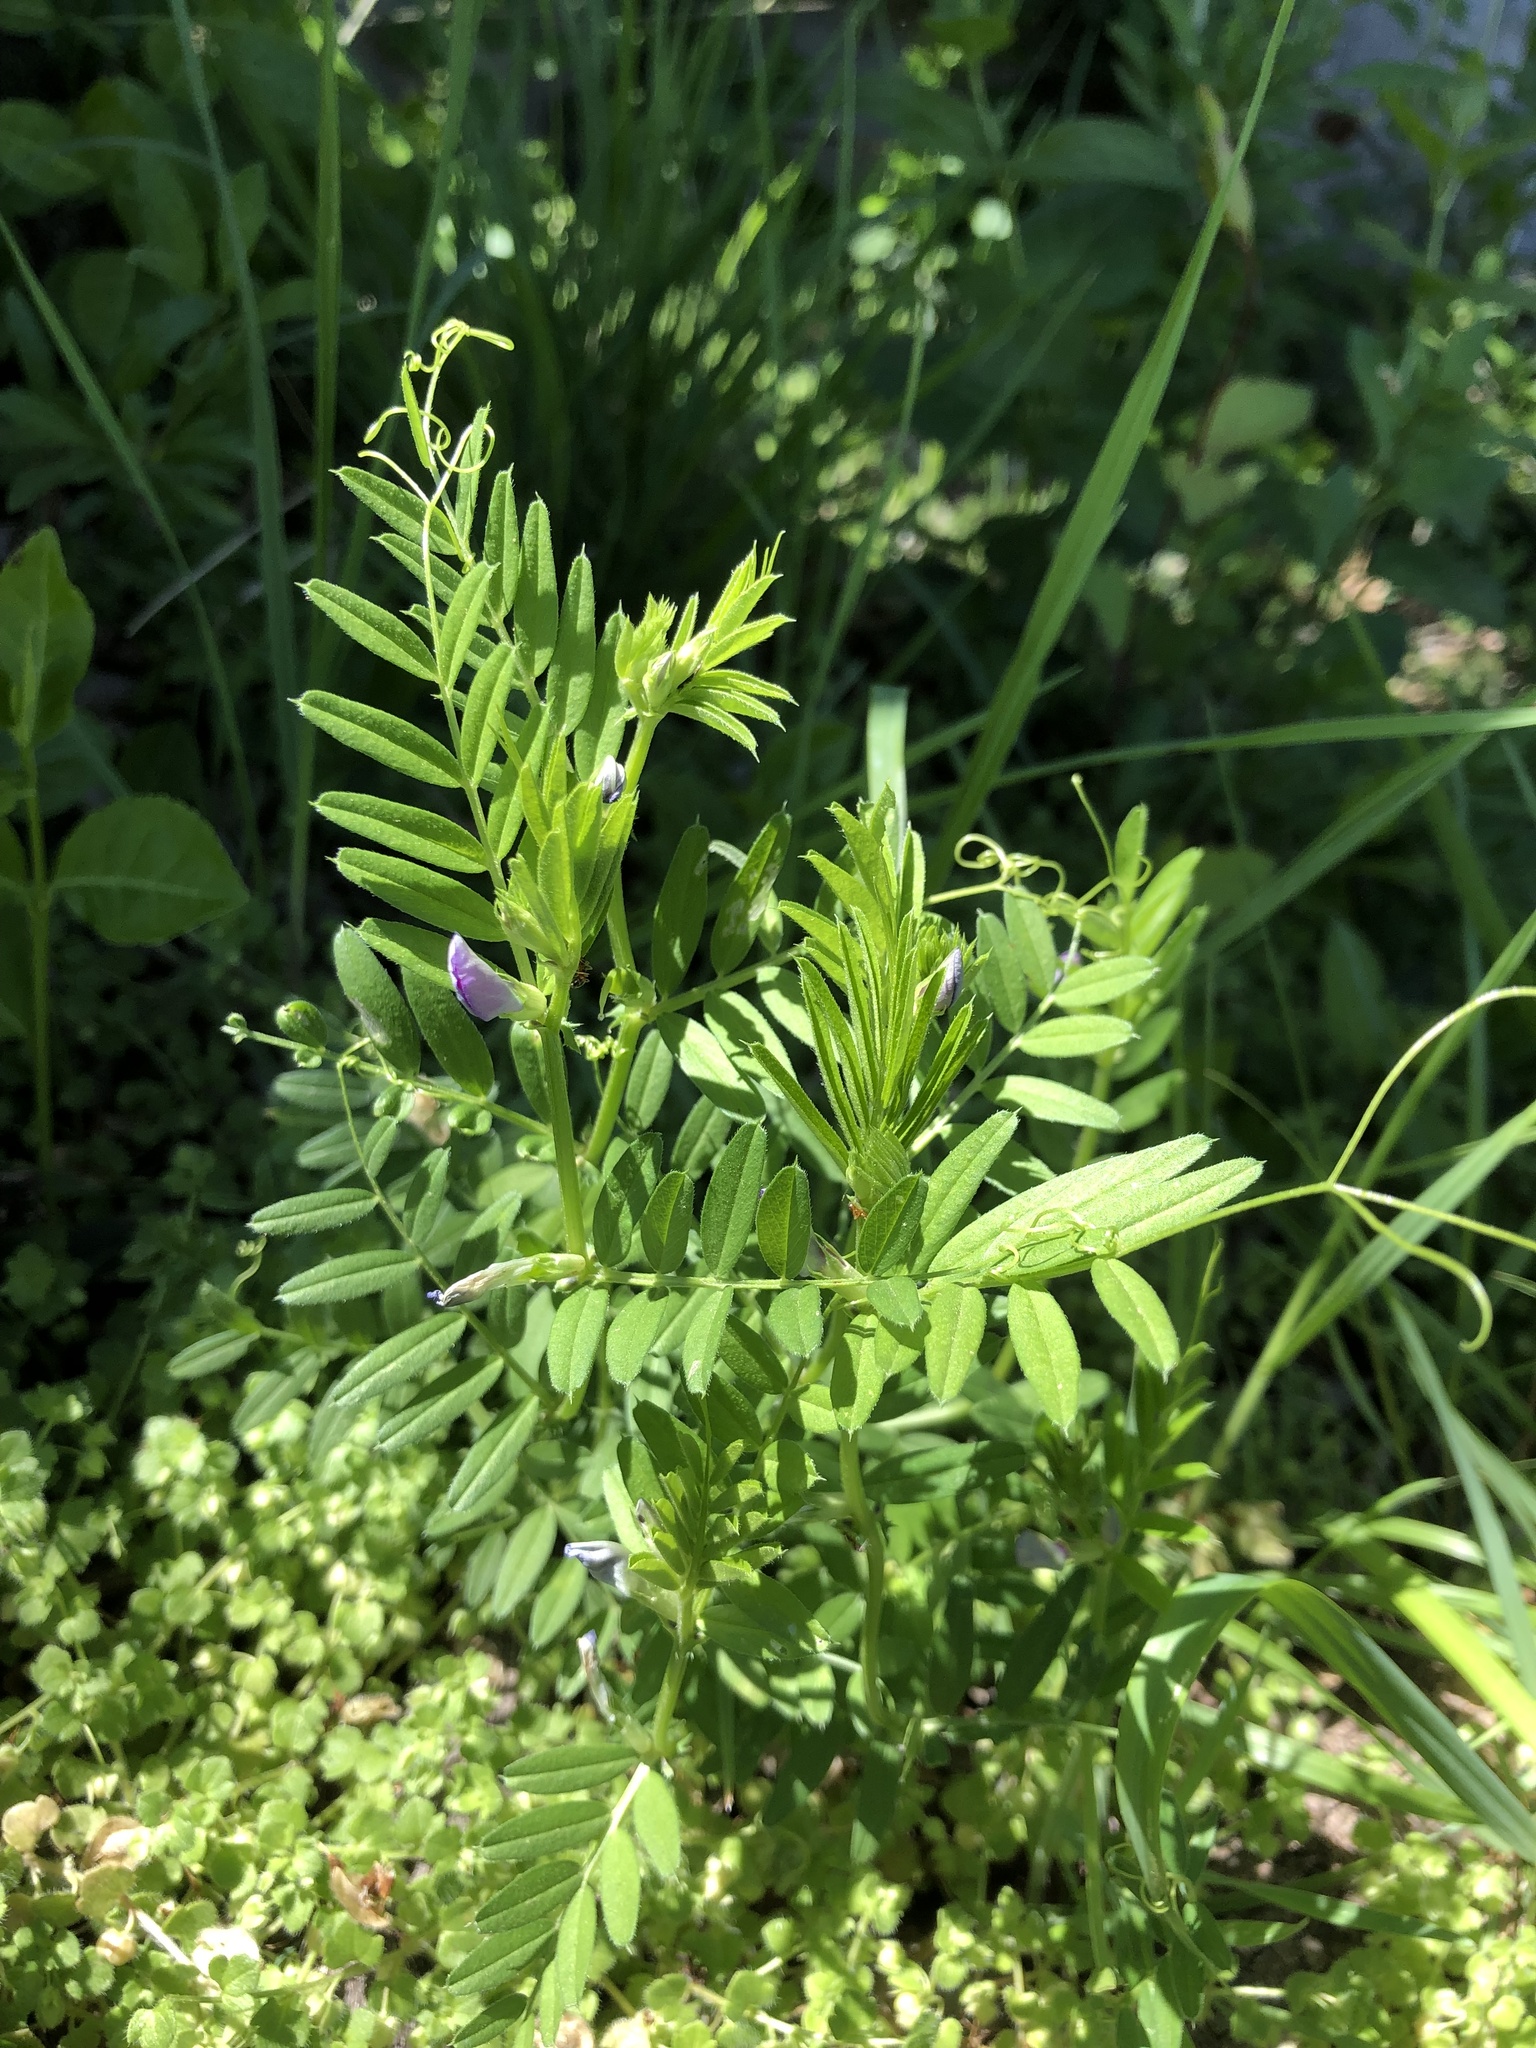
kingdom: Plantae
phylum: Tracheophyta
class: Magnoliopsida
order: Fabales
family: Fabaceae
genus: Vicia
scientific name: Vicia sativa
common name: Garden vetch
